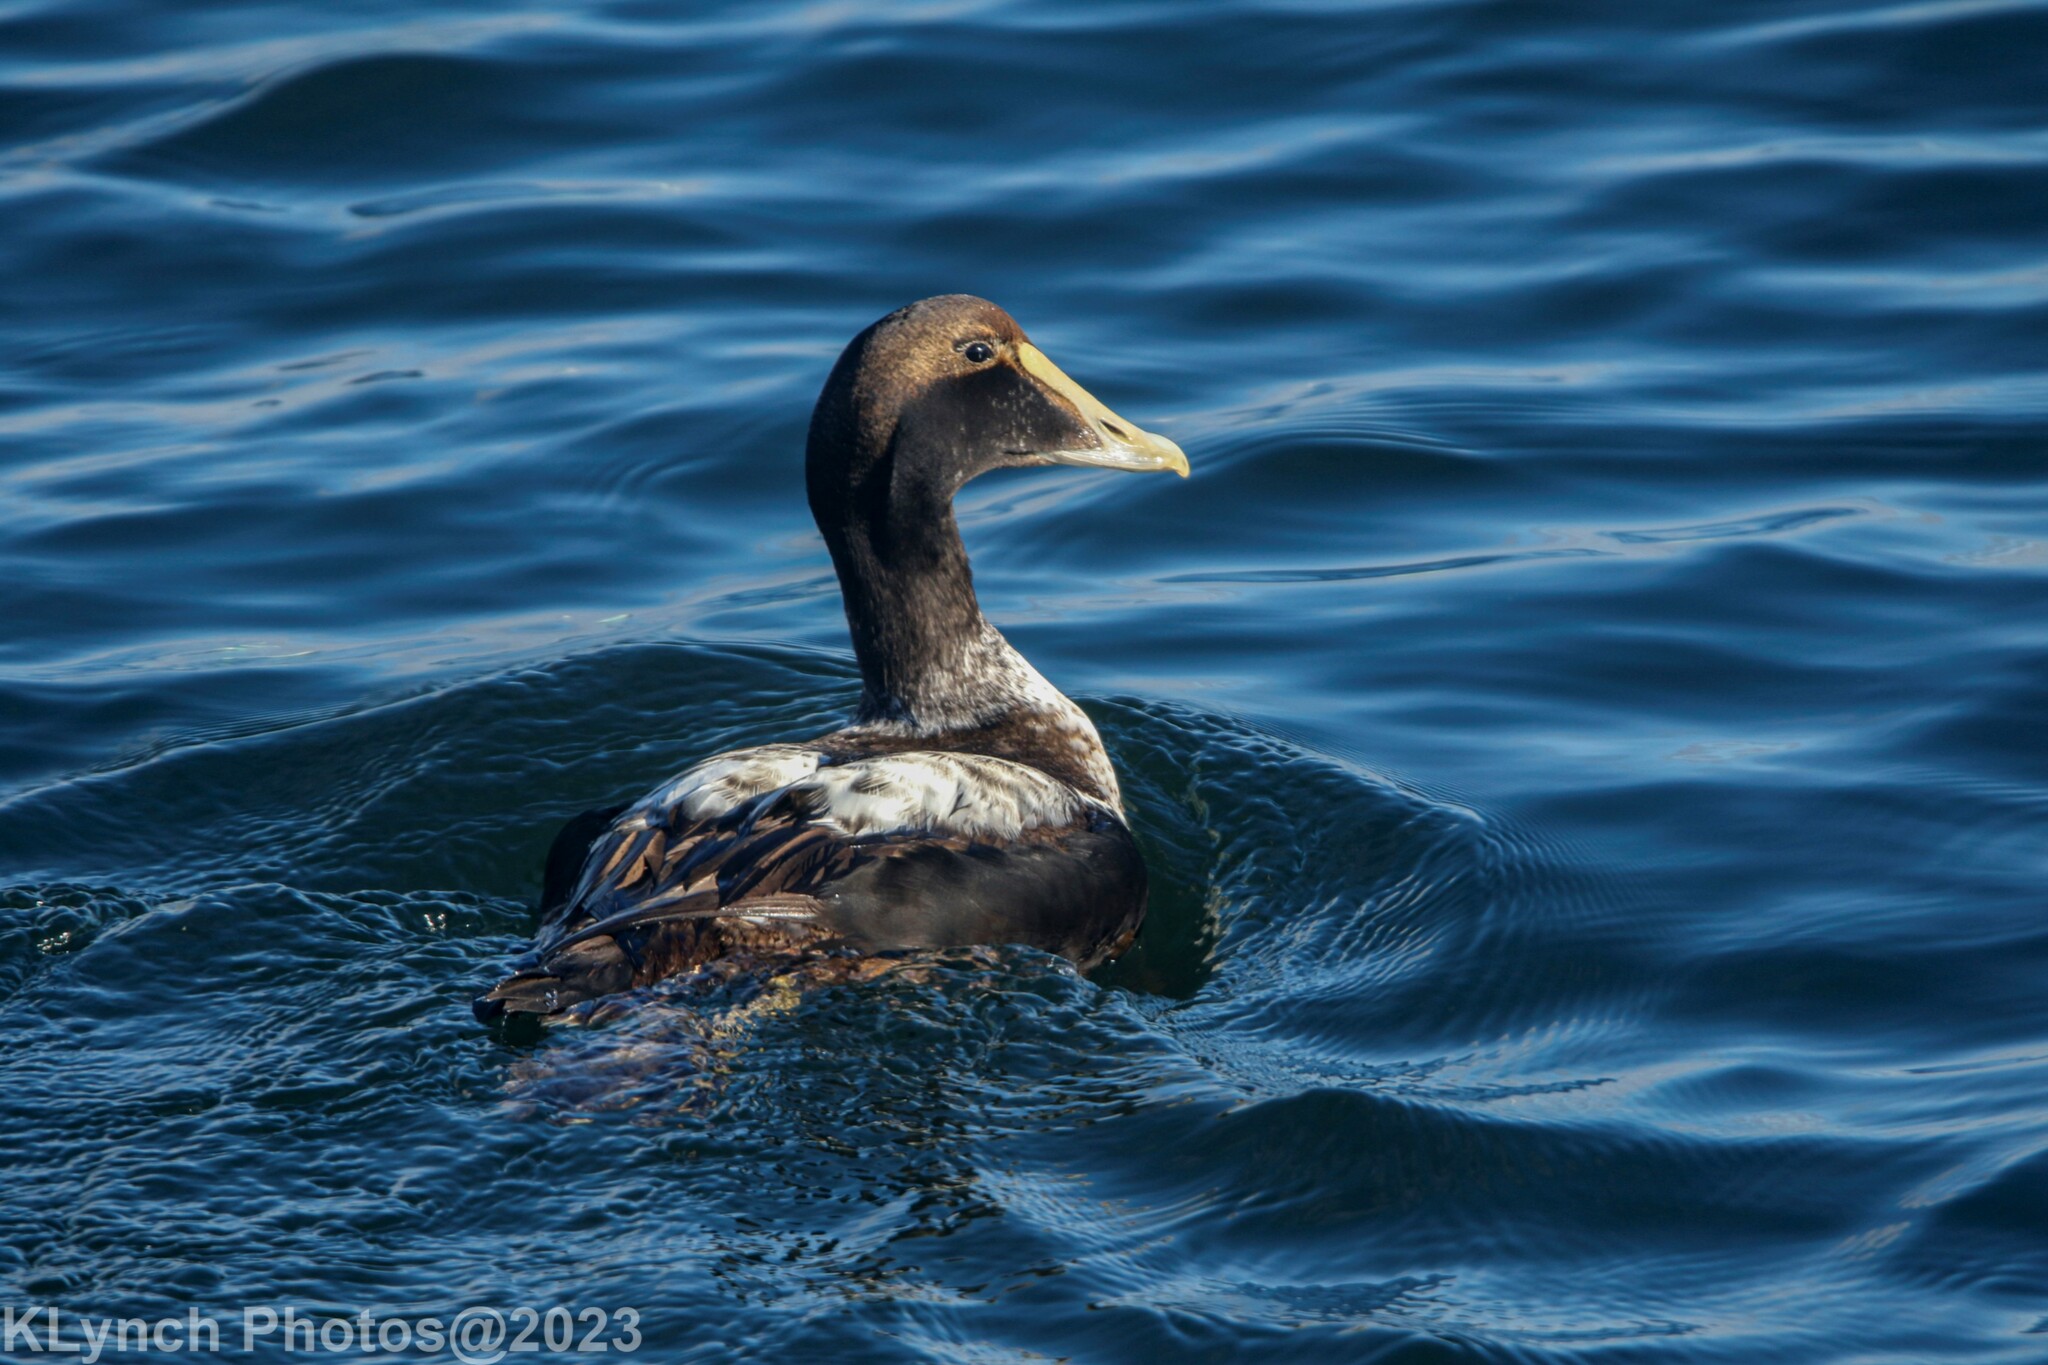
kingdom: Animalia
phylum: Chordata
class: Aves
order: Anseriformes
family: Anatidae
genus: Somateria
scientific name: Somateria mollissima
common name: Common eider
